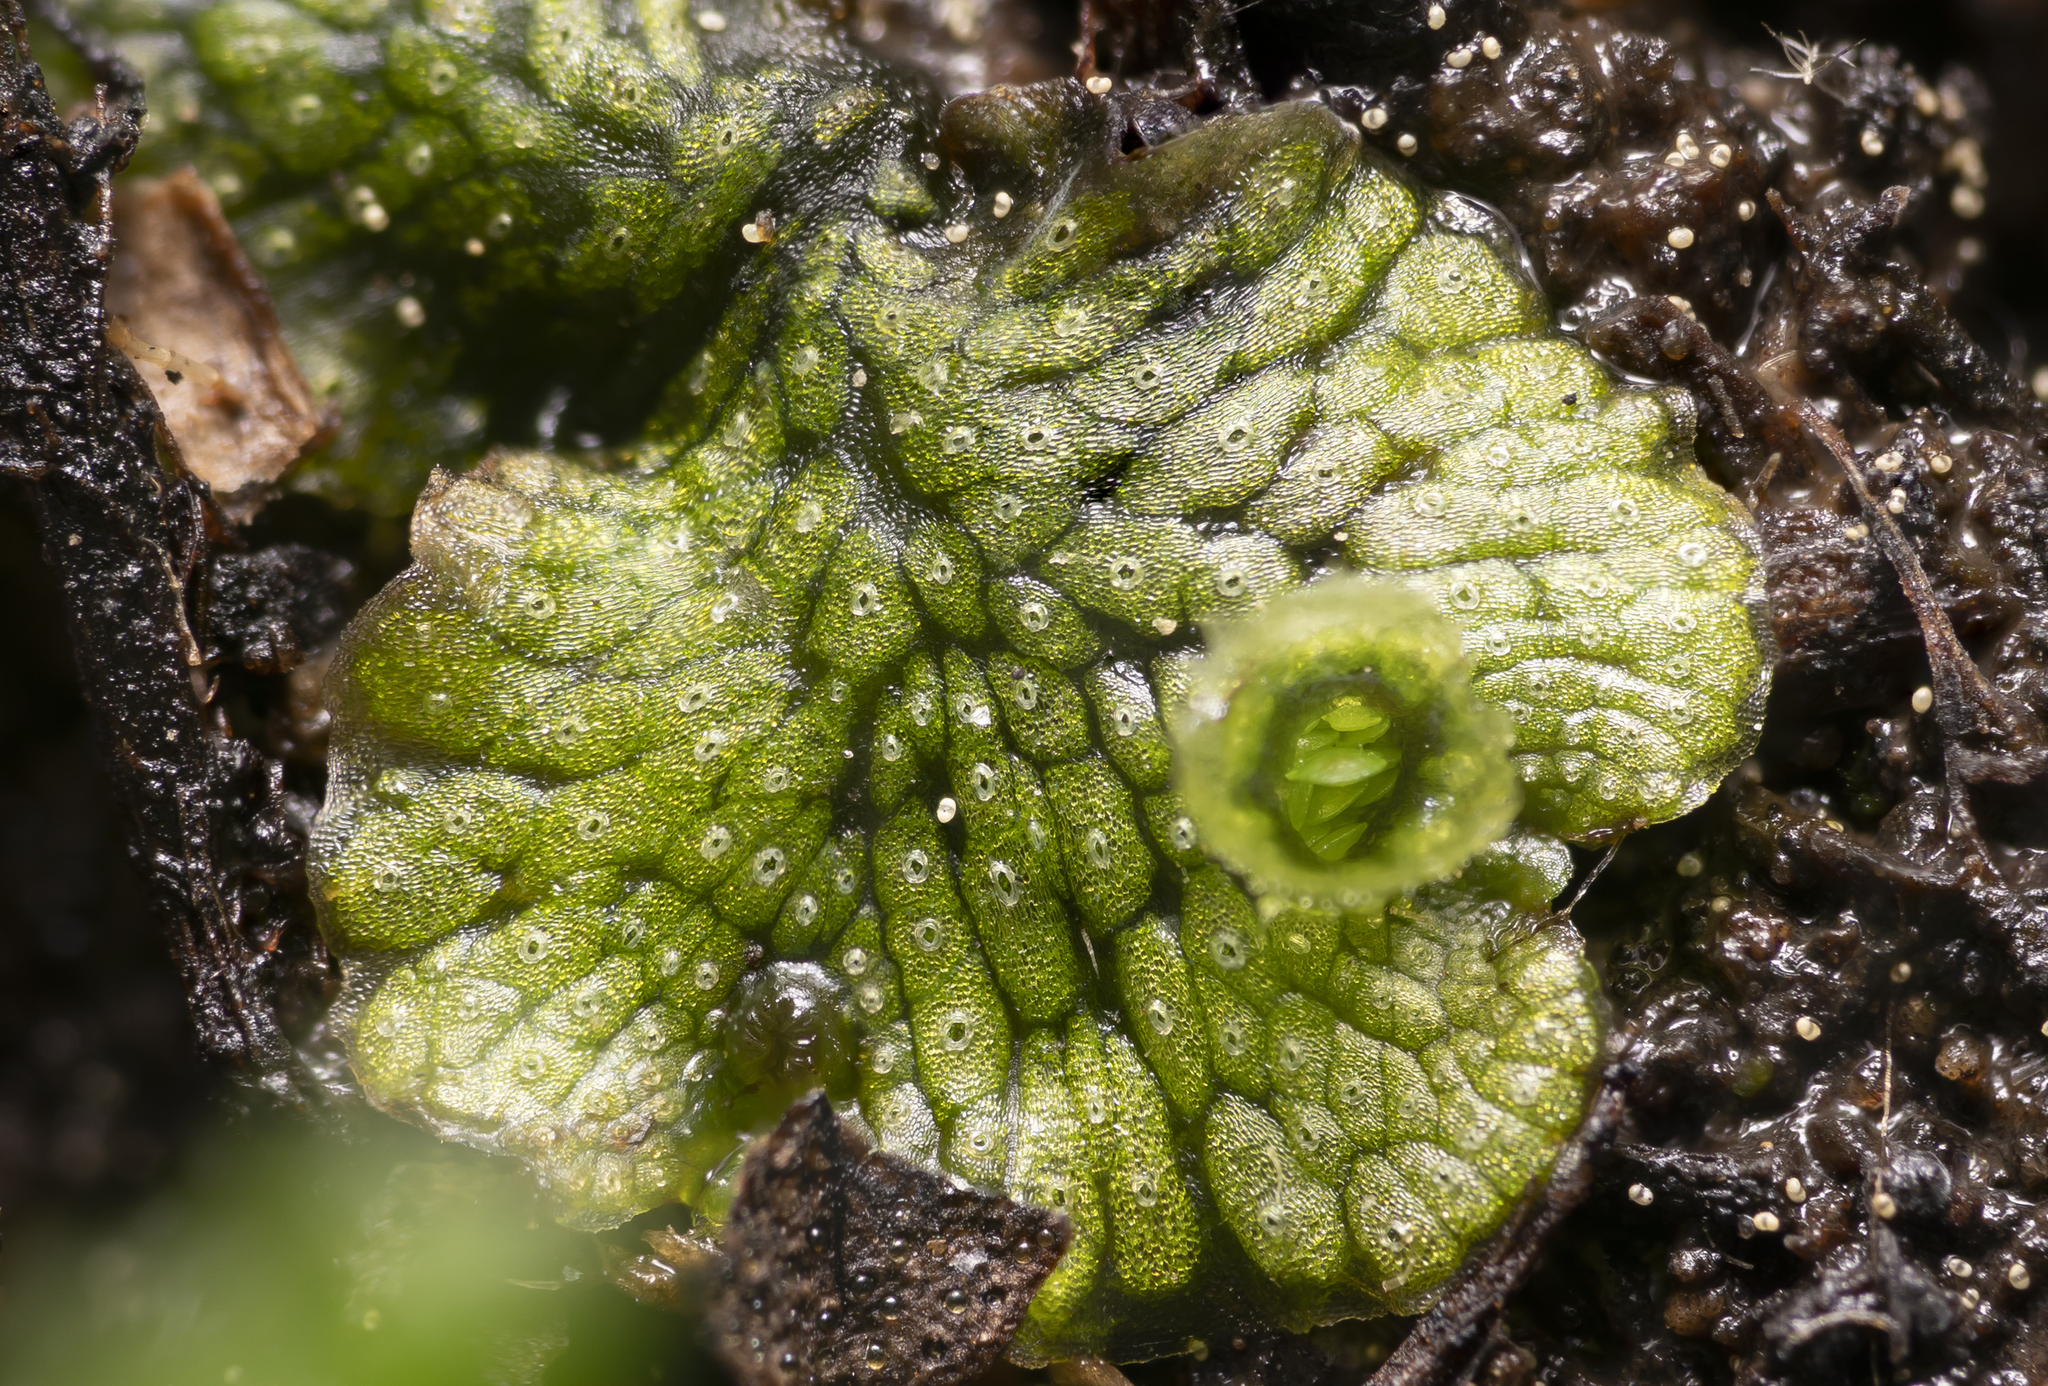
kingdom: Plantae
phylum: Marchantiophyta
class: Marchantiopsida
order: Marchantiales
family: Marchantiaceae
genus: Marchantia
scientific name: Marchantia polymorpha
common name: Common liverwort
